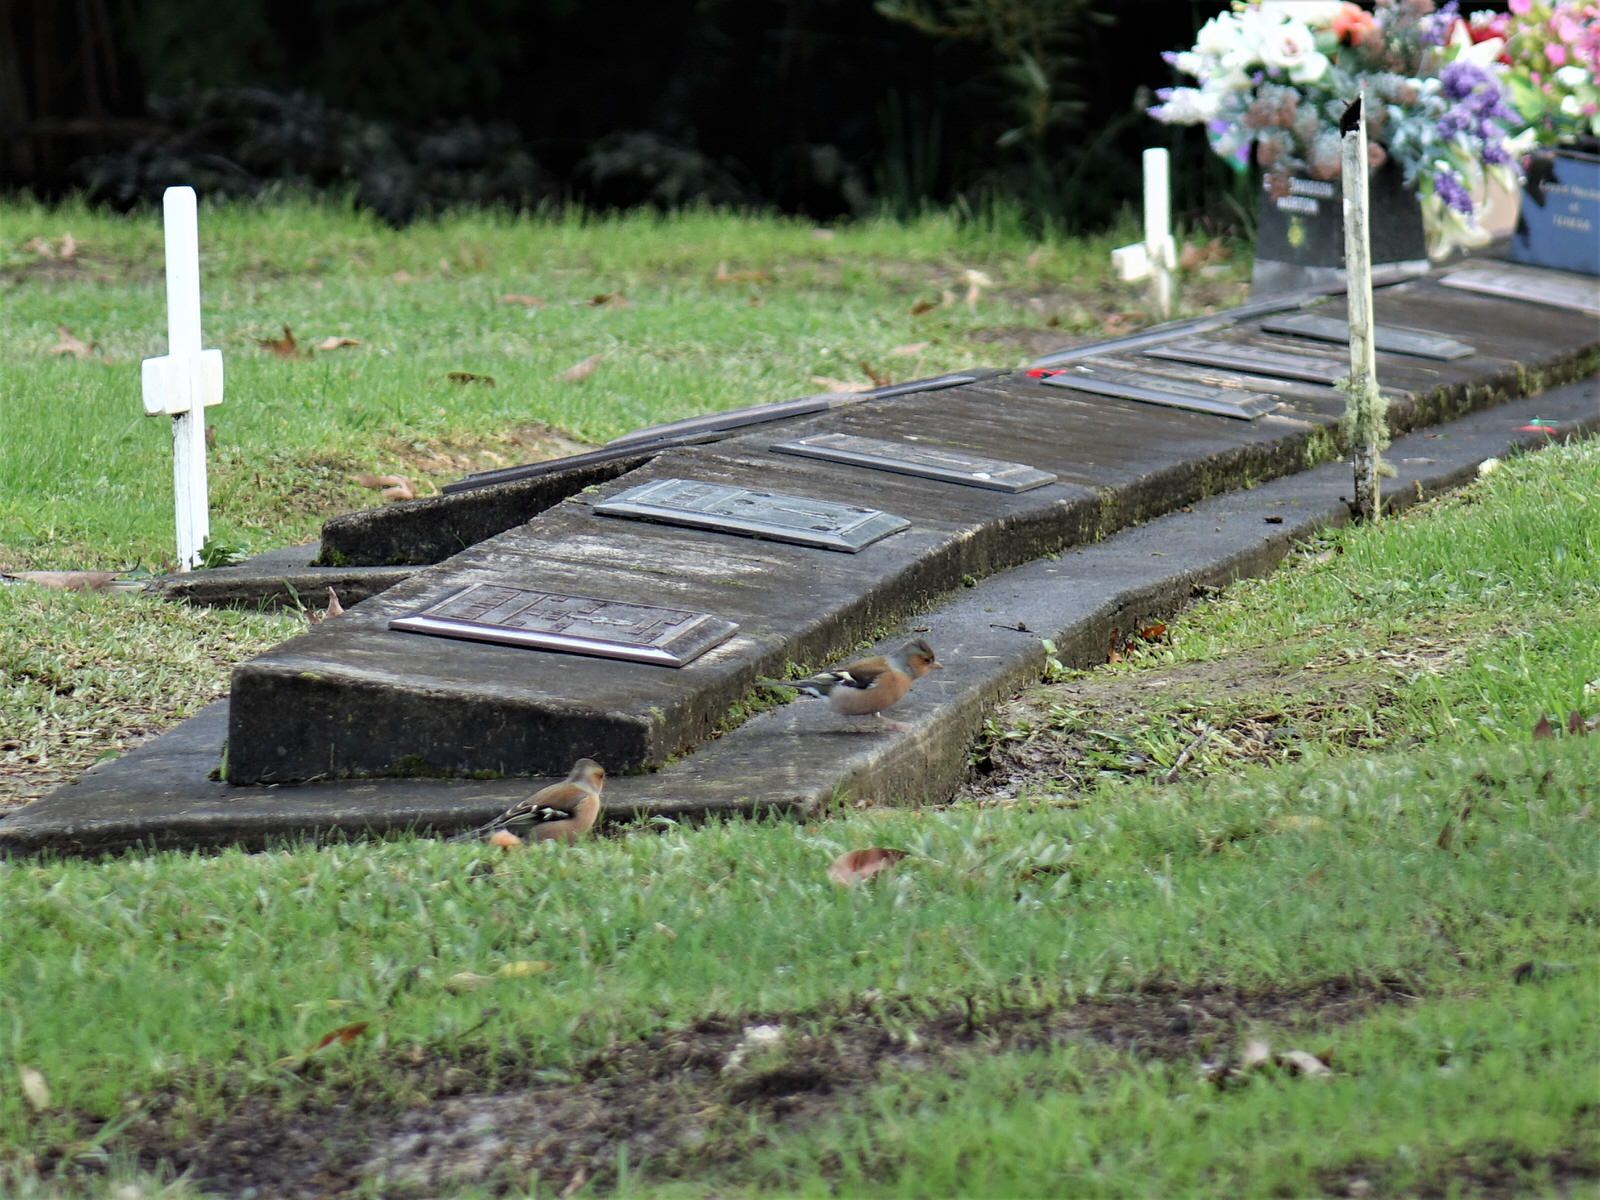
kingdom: Animalia
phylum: Chordata
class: Aves
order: Passeriformes
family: Fringillidae
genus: Fringilla
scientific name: Fringilla coelebs
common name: Common chaffinch
